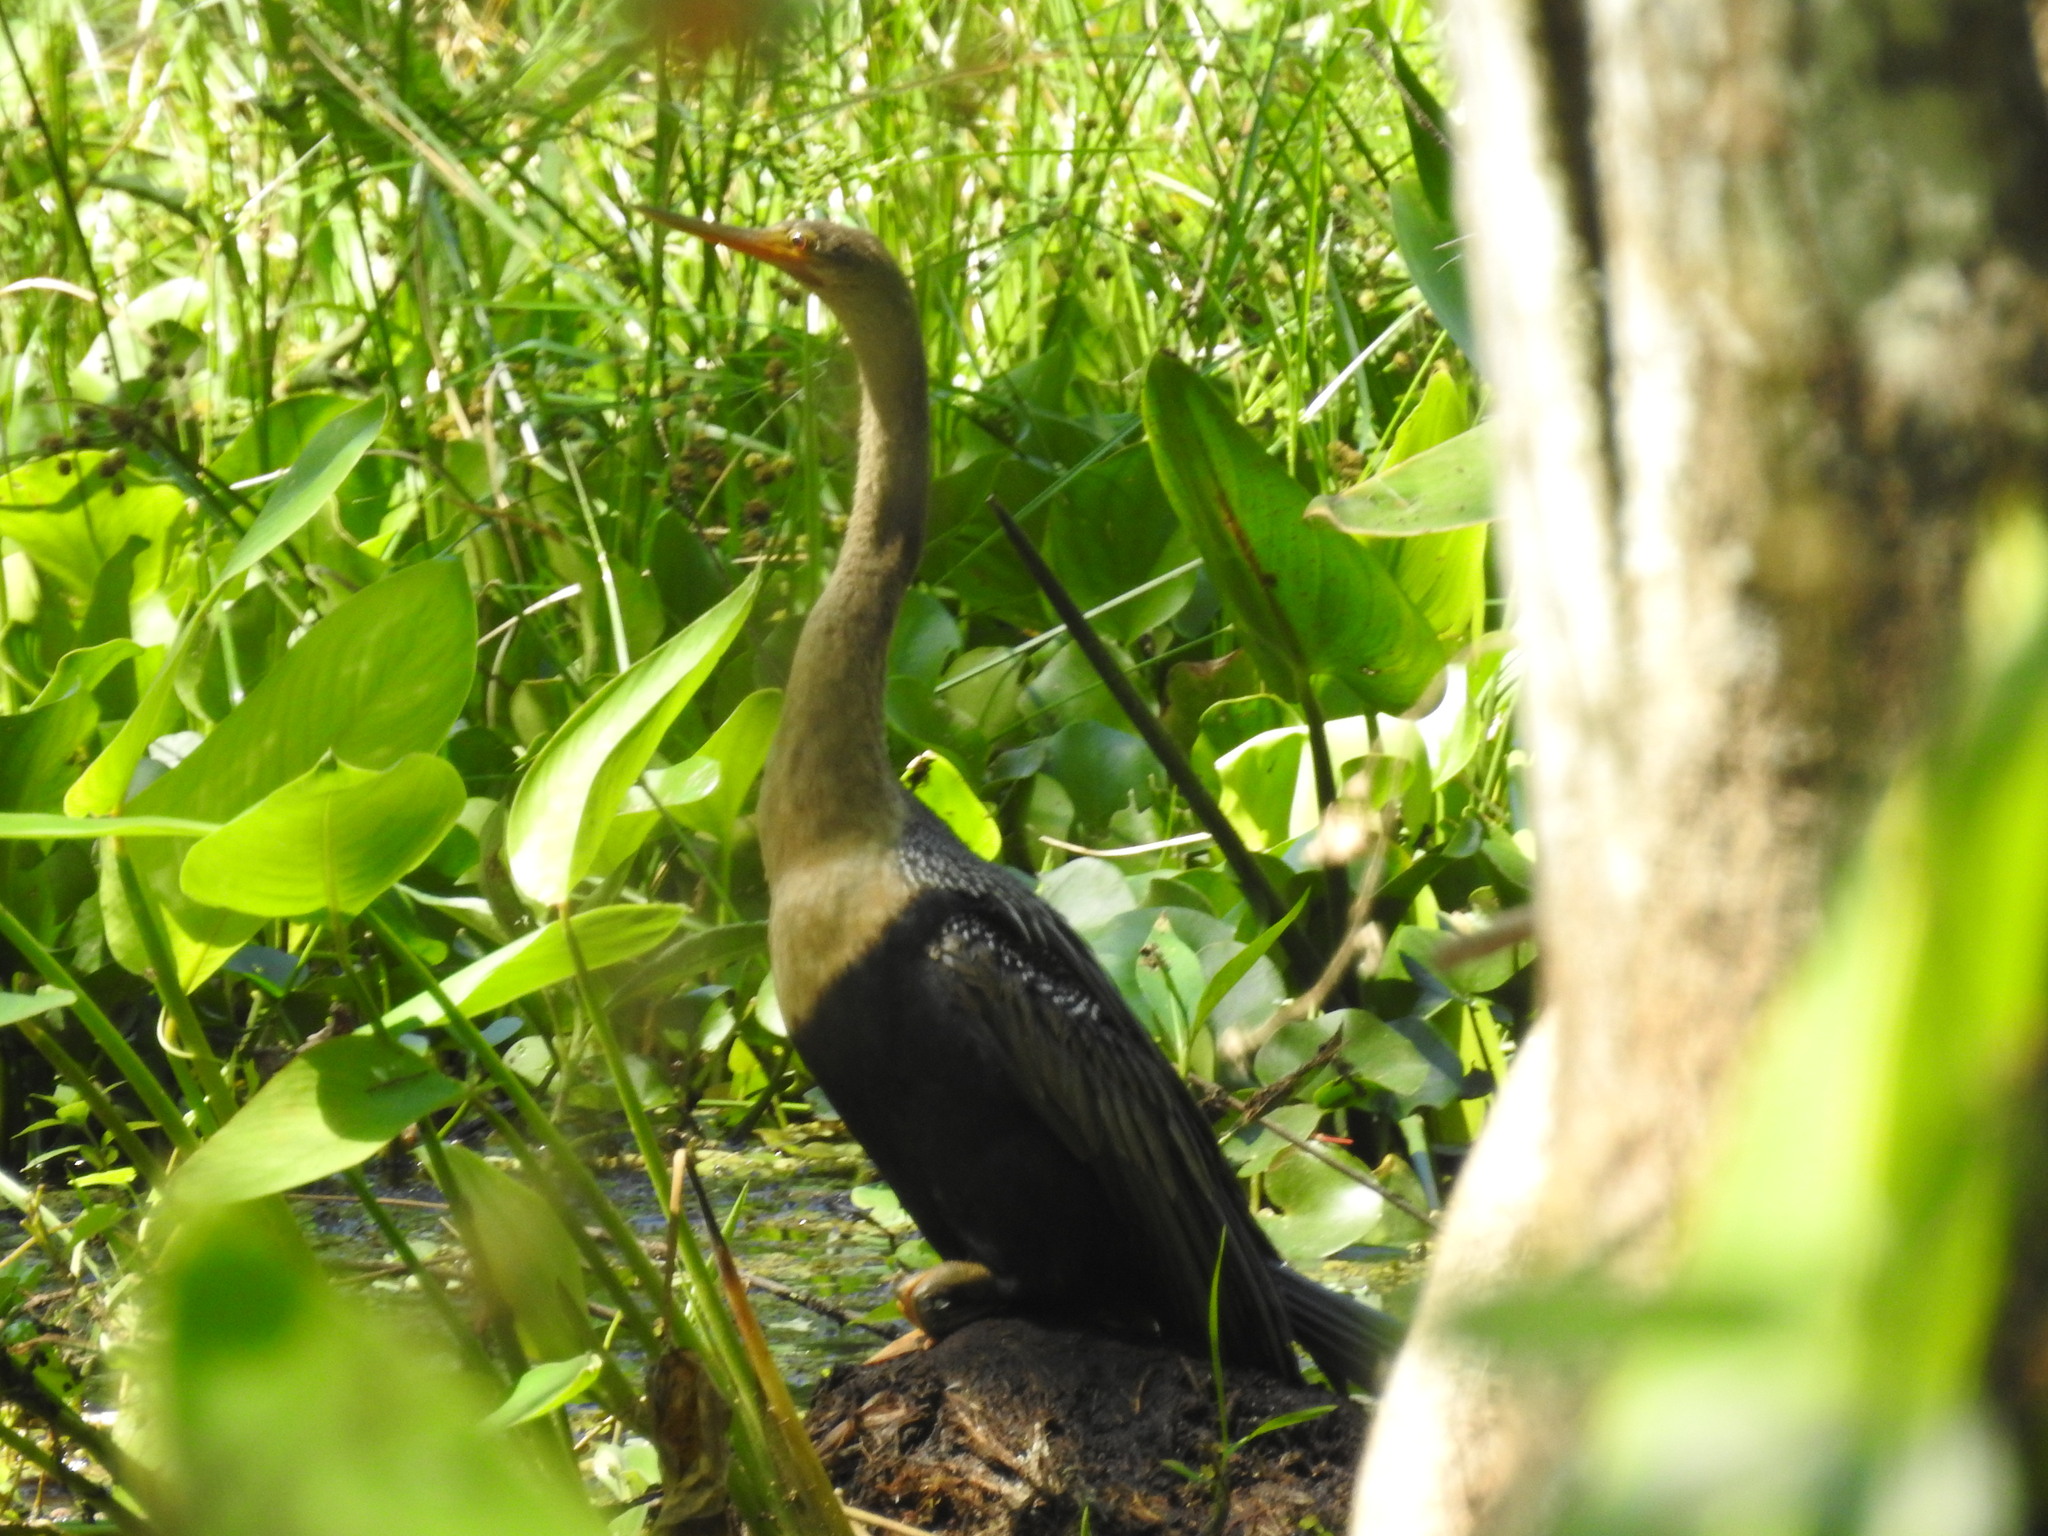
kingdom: Animalia
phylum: Chordata
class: Aves
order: Suliformes
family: Anhingidae
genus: Anhinga
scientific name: Anhinga anhinga
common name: Anhinga
